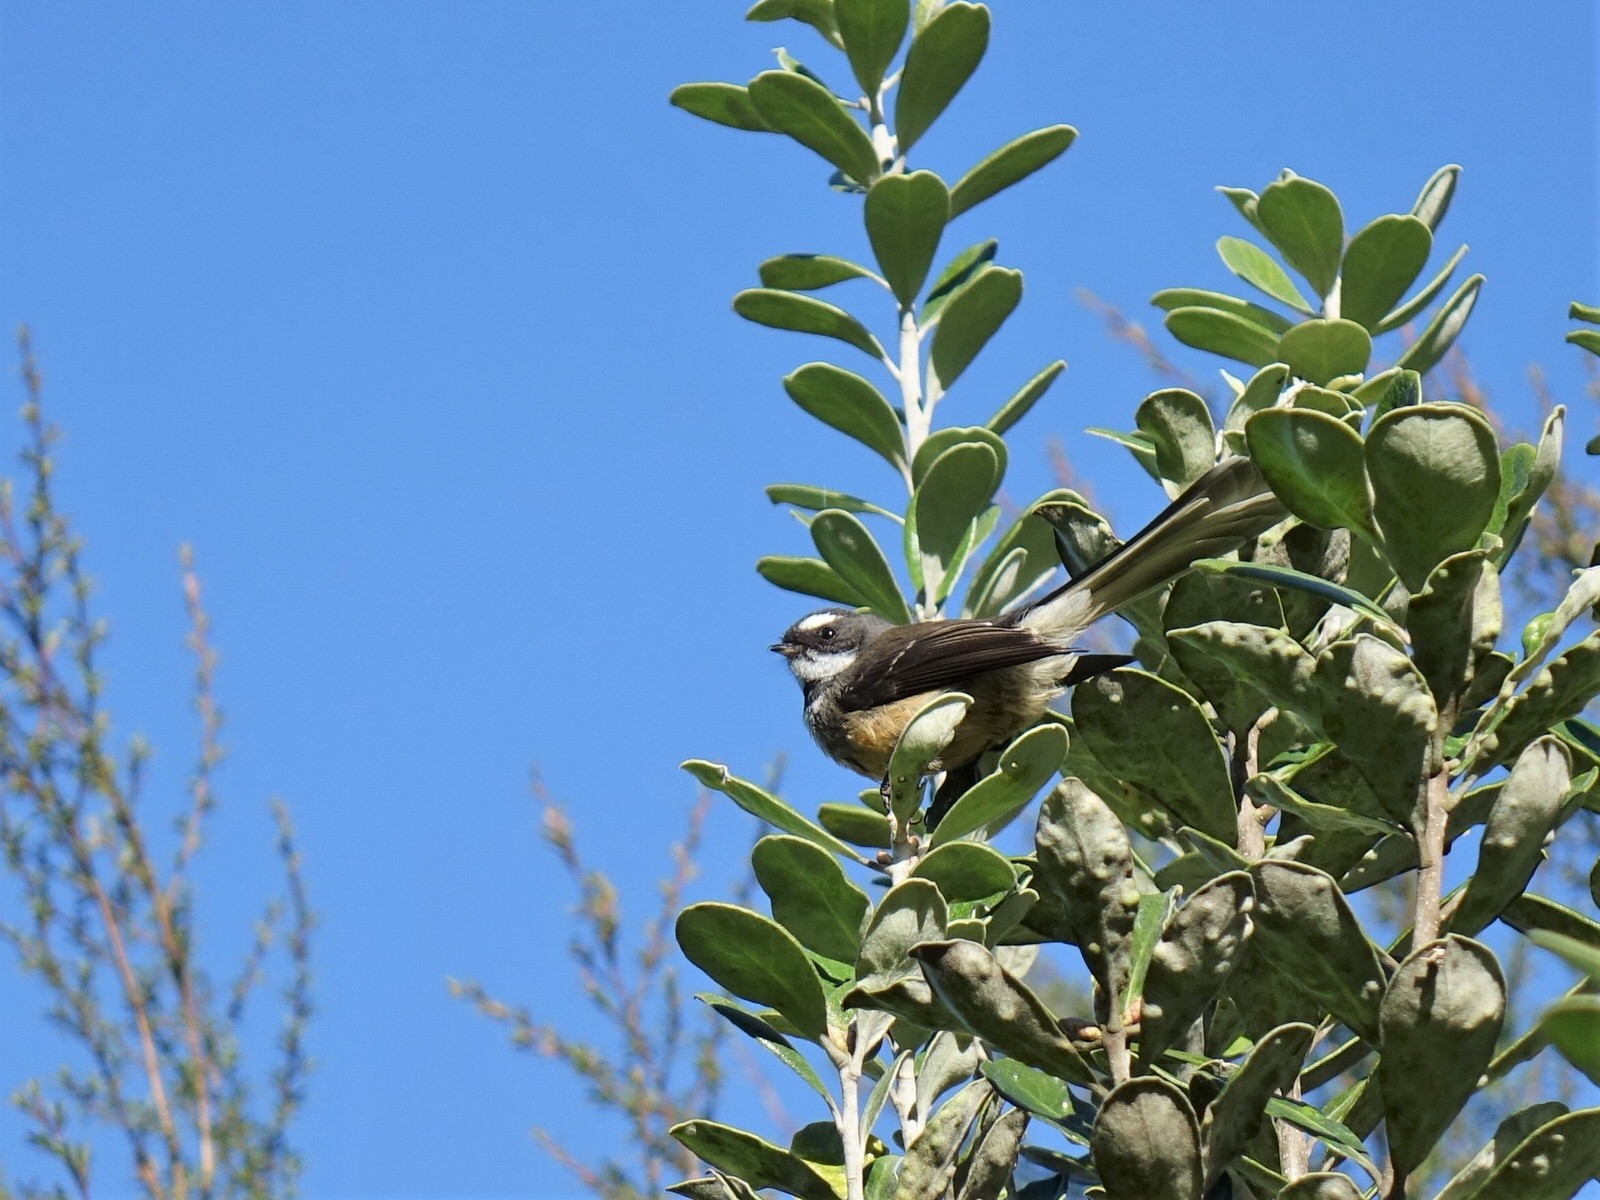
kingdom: Animalia
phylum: Chordata
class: Aves
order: Passeriformes
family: Rhipiduridae
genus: Rhipidura
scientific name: Rhipidura fuliginosa
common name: New zealand fantail
